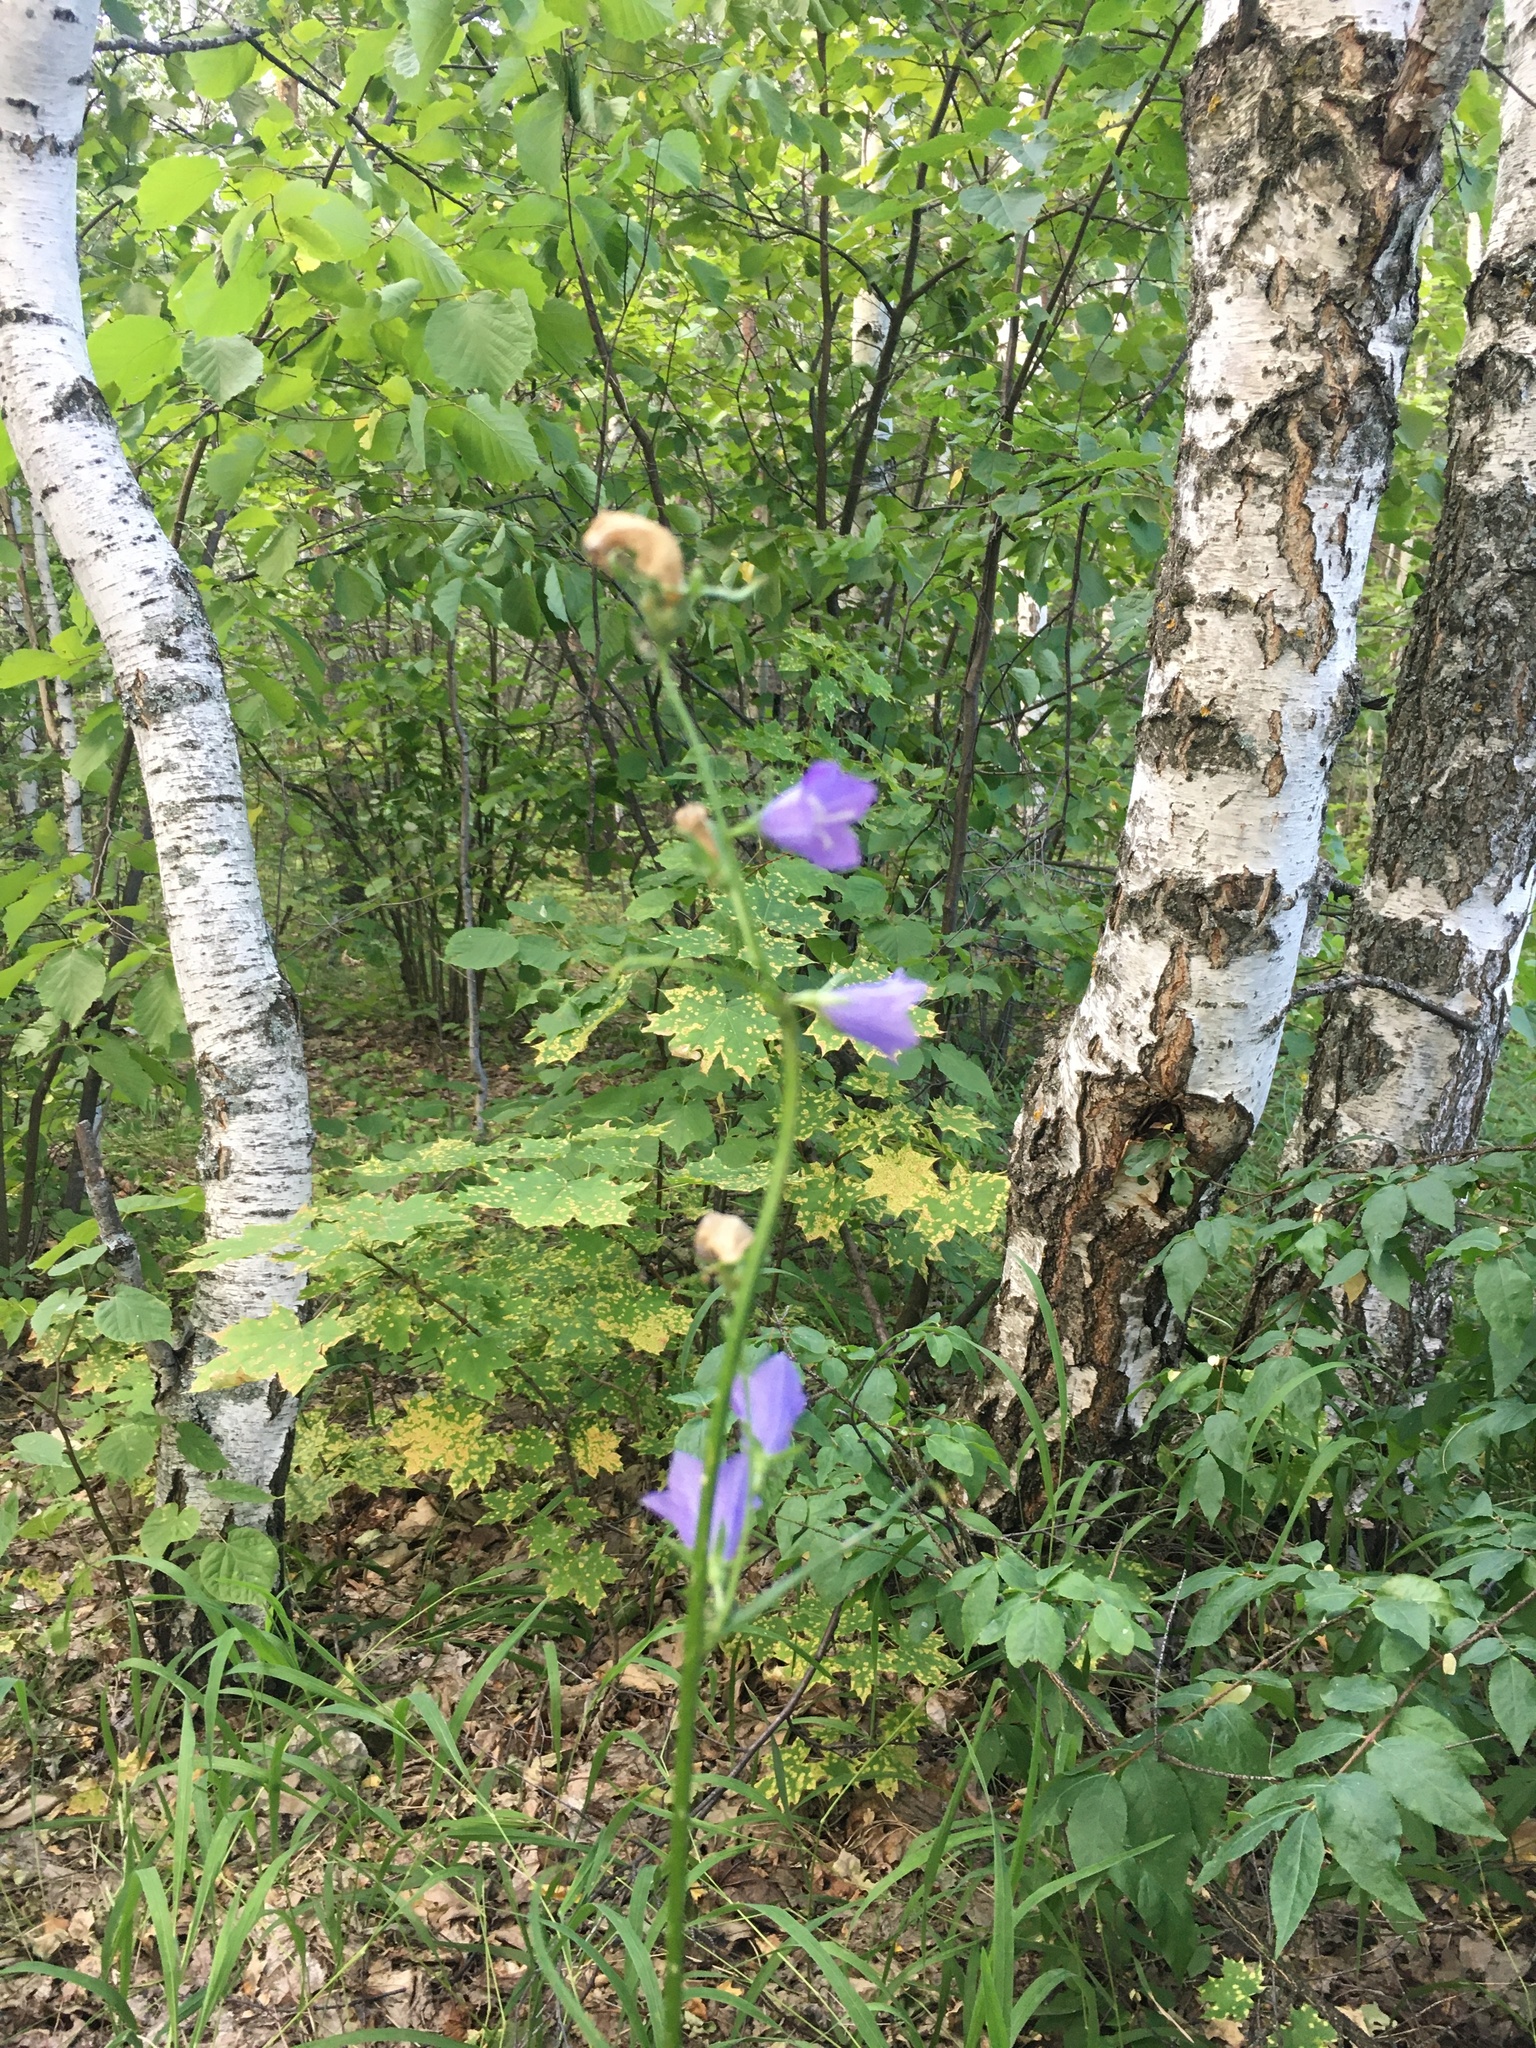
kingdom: Plantae
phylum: Tracheophyta
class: Magnoliopsida
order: Asterales
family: Campanulaceae
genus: Campanula
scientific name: Campanula persicifolia
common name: Peach-leaved bellflower
